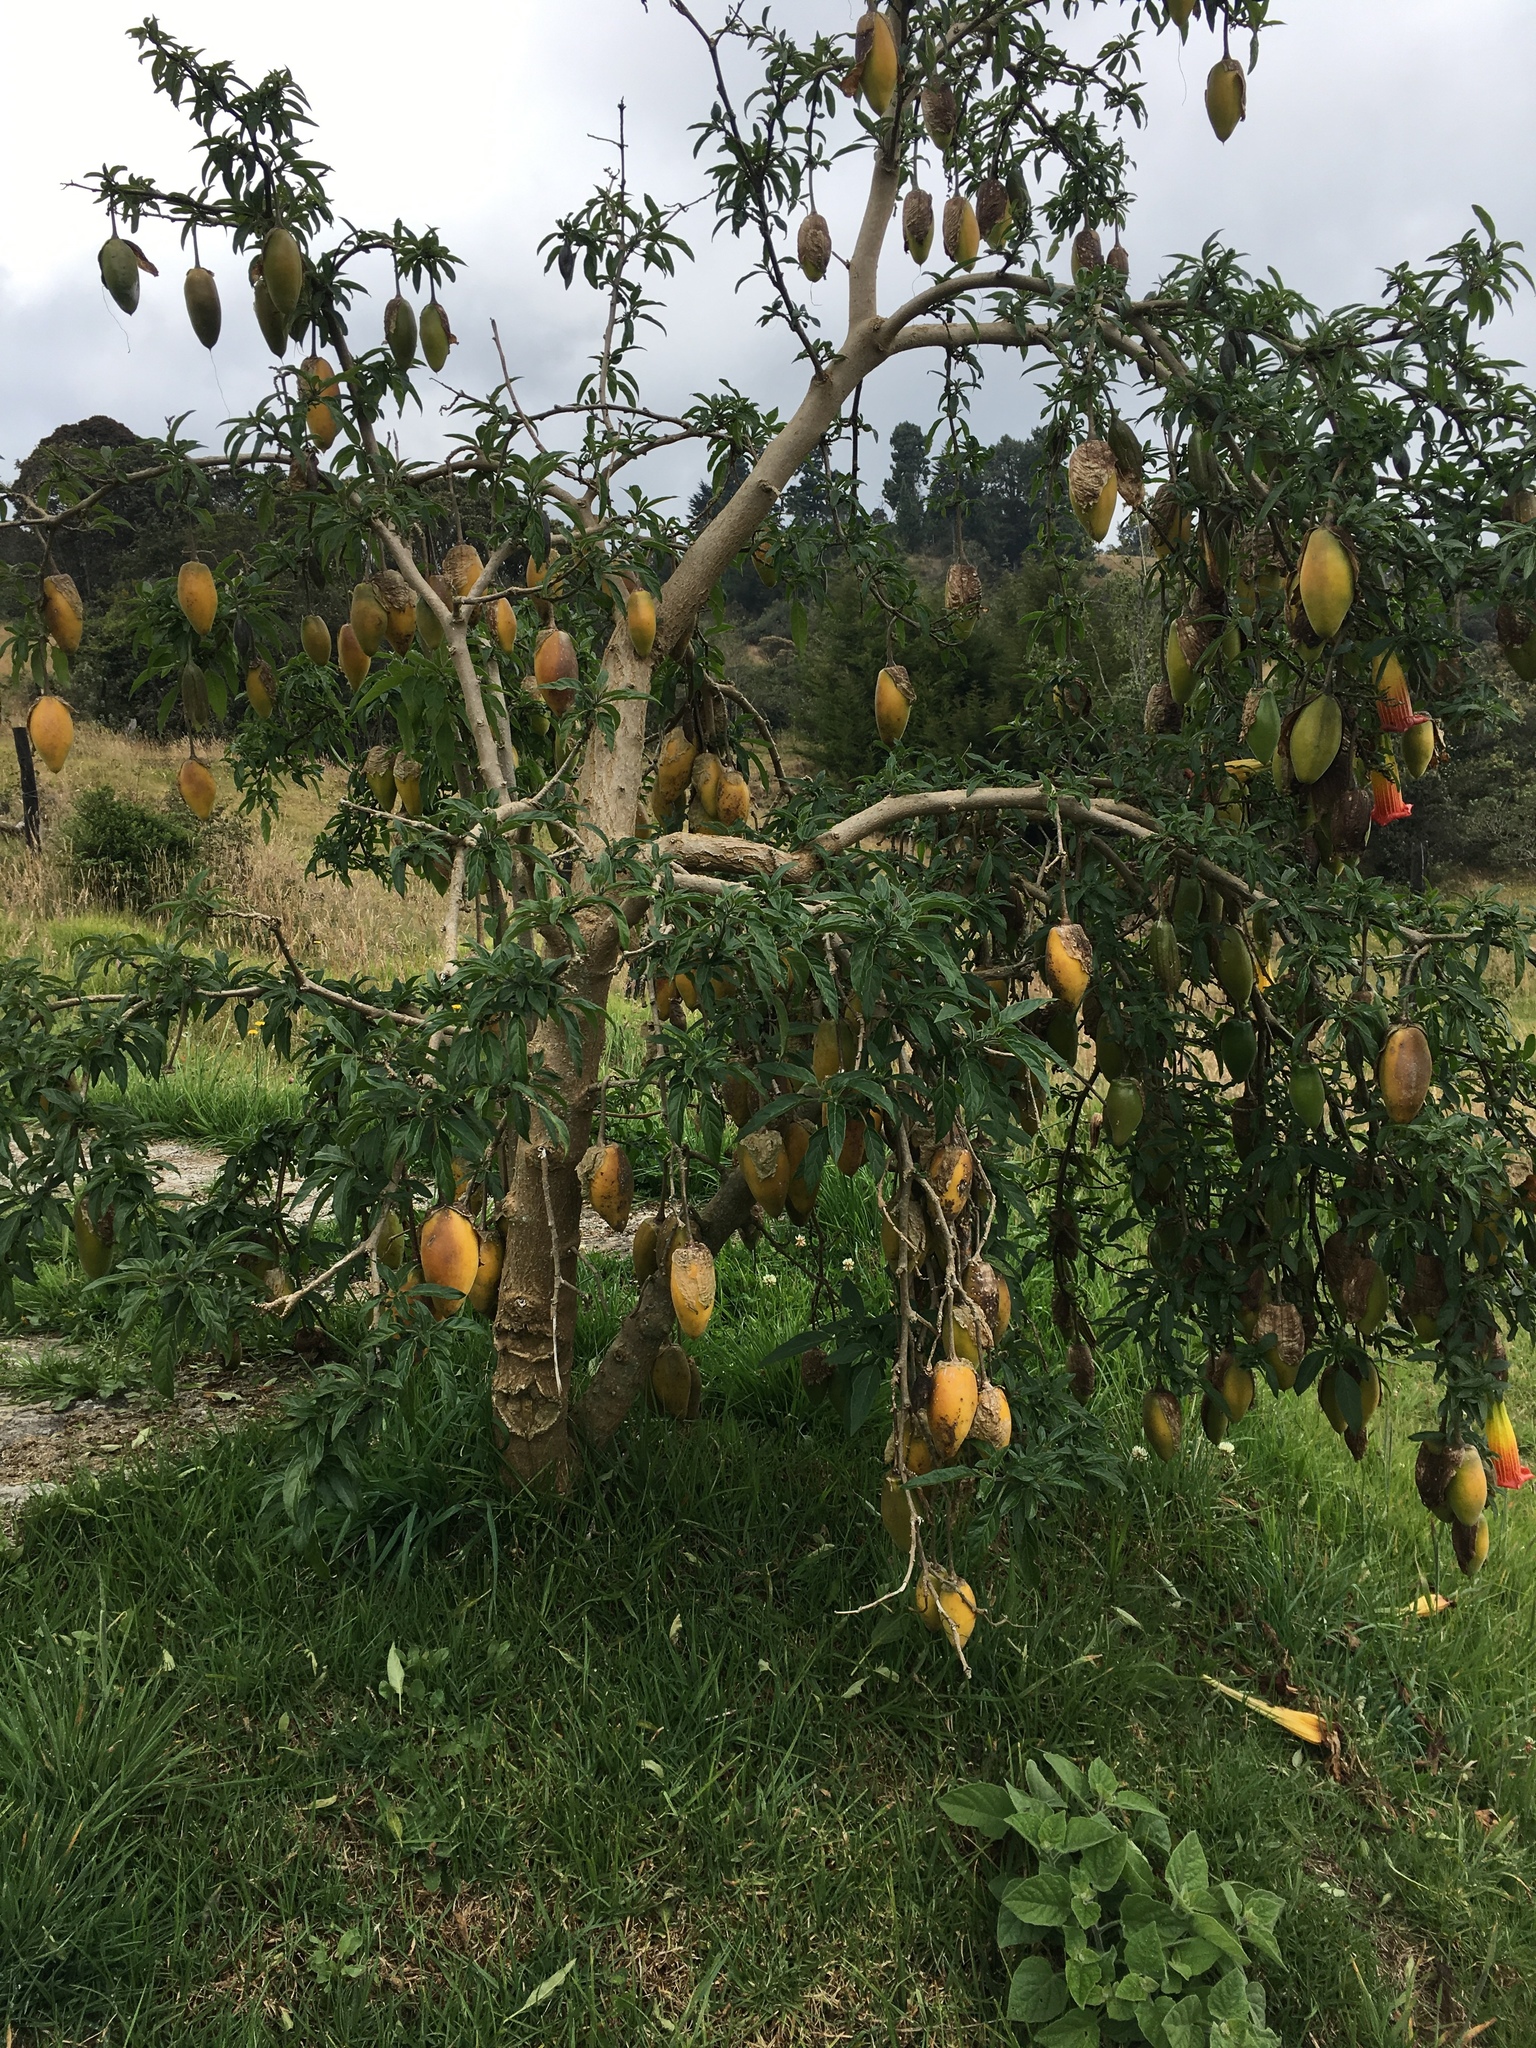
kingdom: Plantae
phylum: Tracheophyta
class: Magnoliopsida
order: Solanales
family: Solanaceae
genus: Brugmansia
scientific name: Brugmansia sanguinea
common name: Red floripontio
